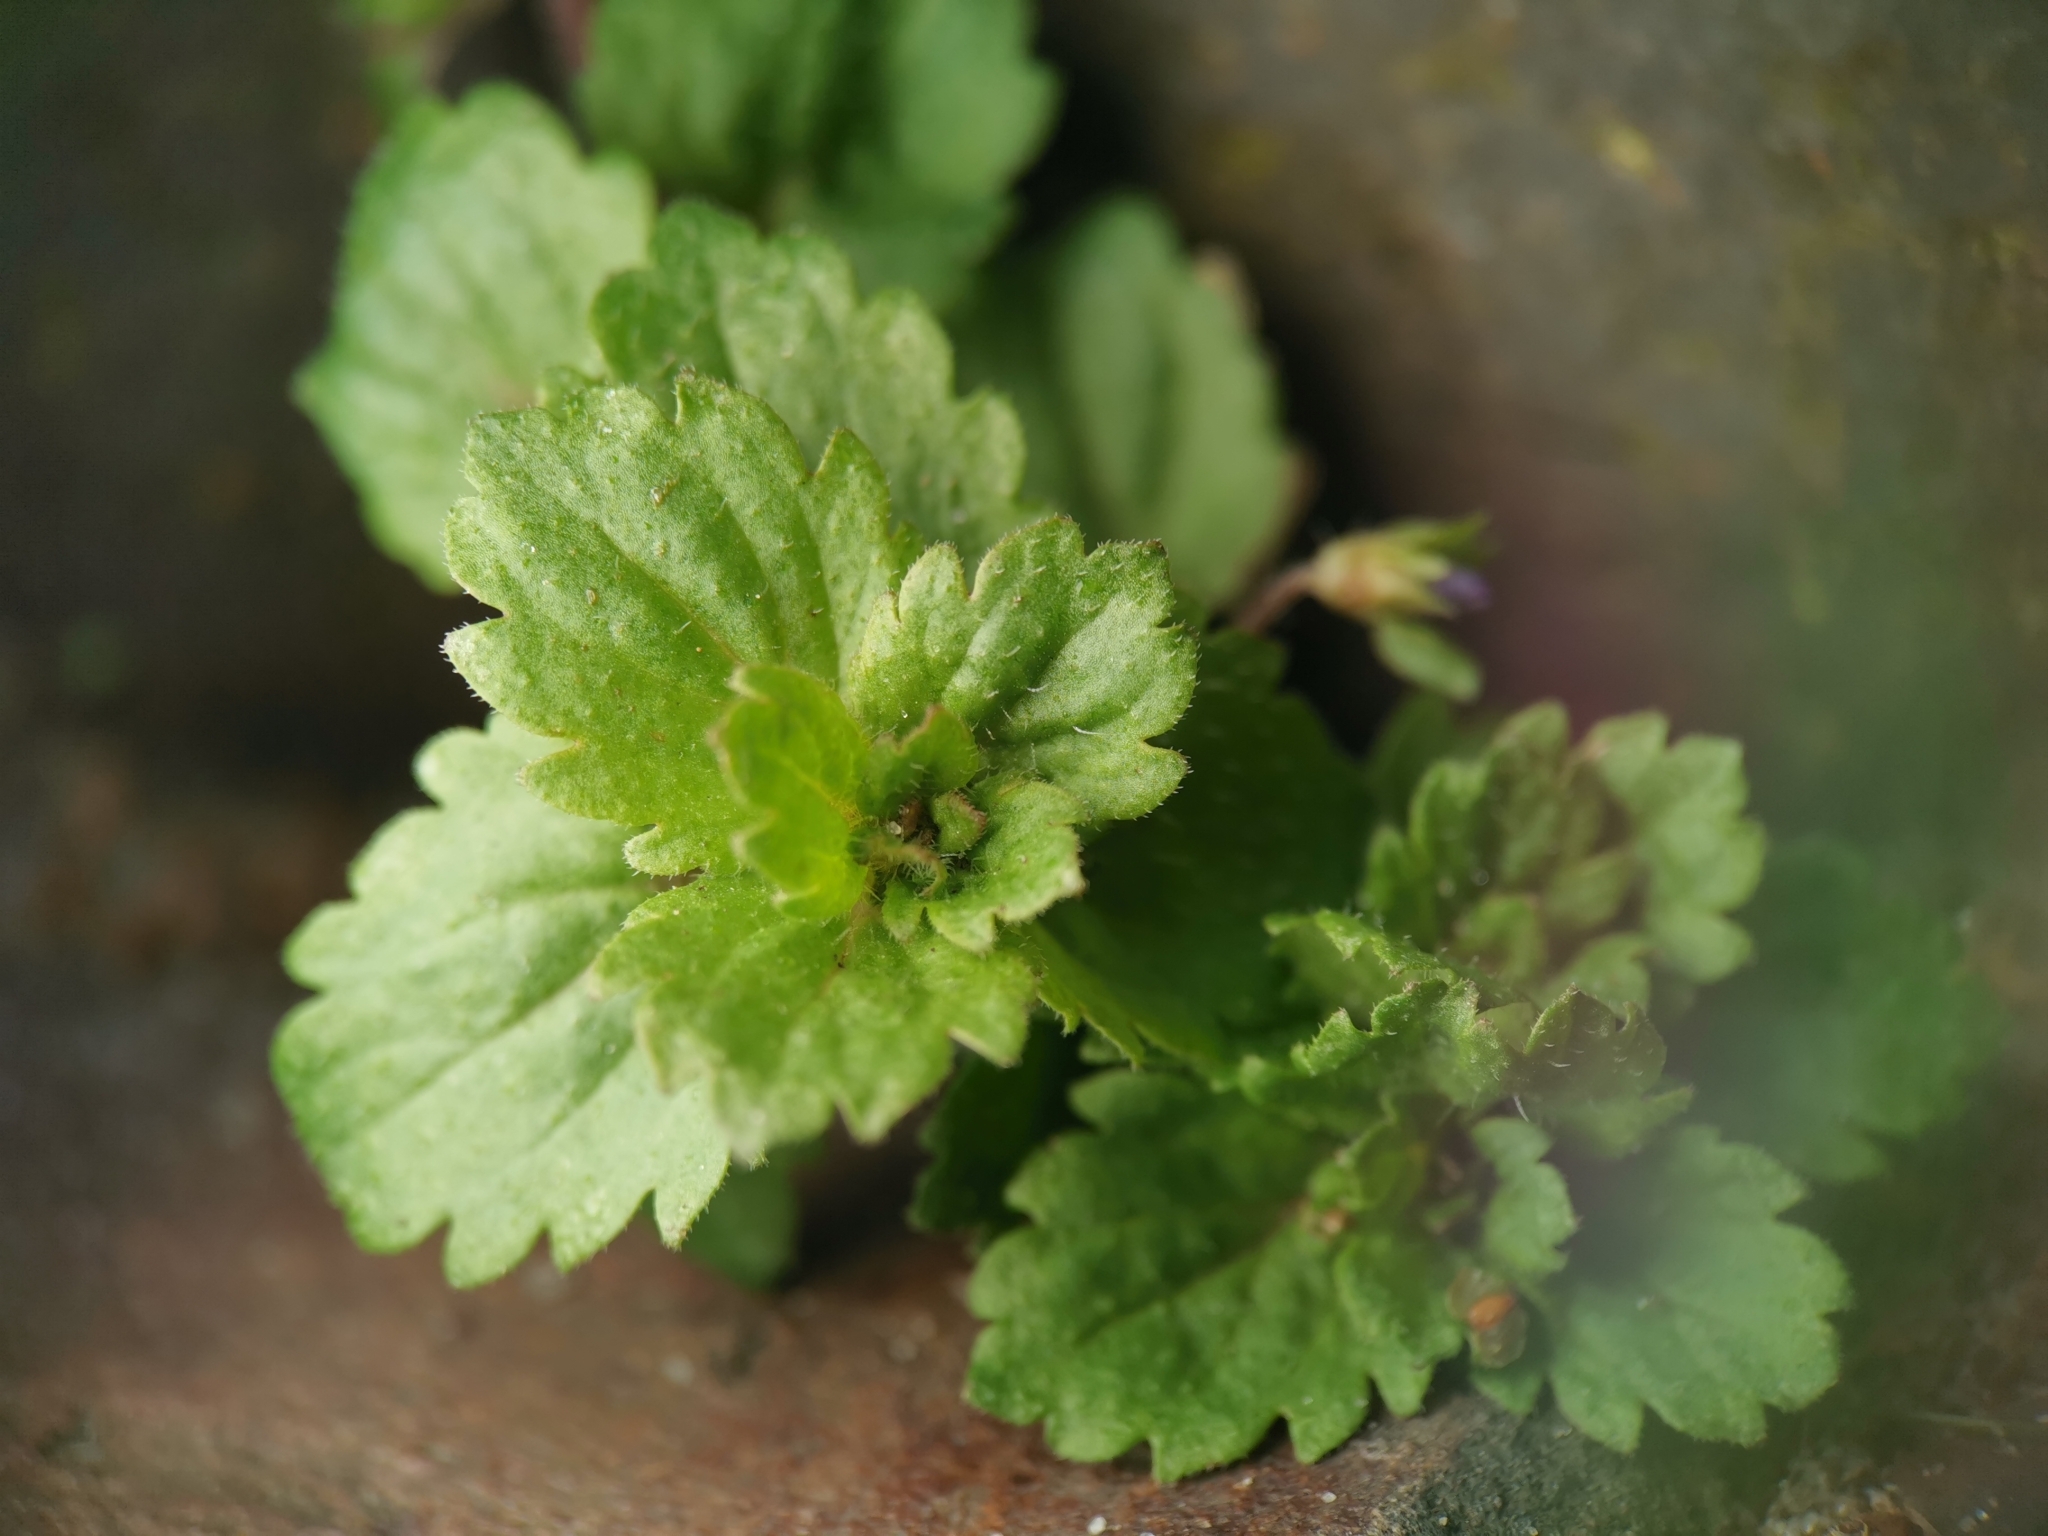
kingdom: Plantae
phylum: Tracheophyta
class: Magnoliopsida
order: Lamiales
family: Plantaginaceae
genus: Veronica
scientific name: Veronica persica
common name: Common field-speedwell
